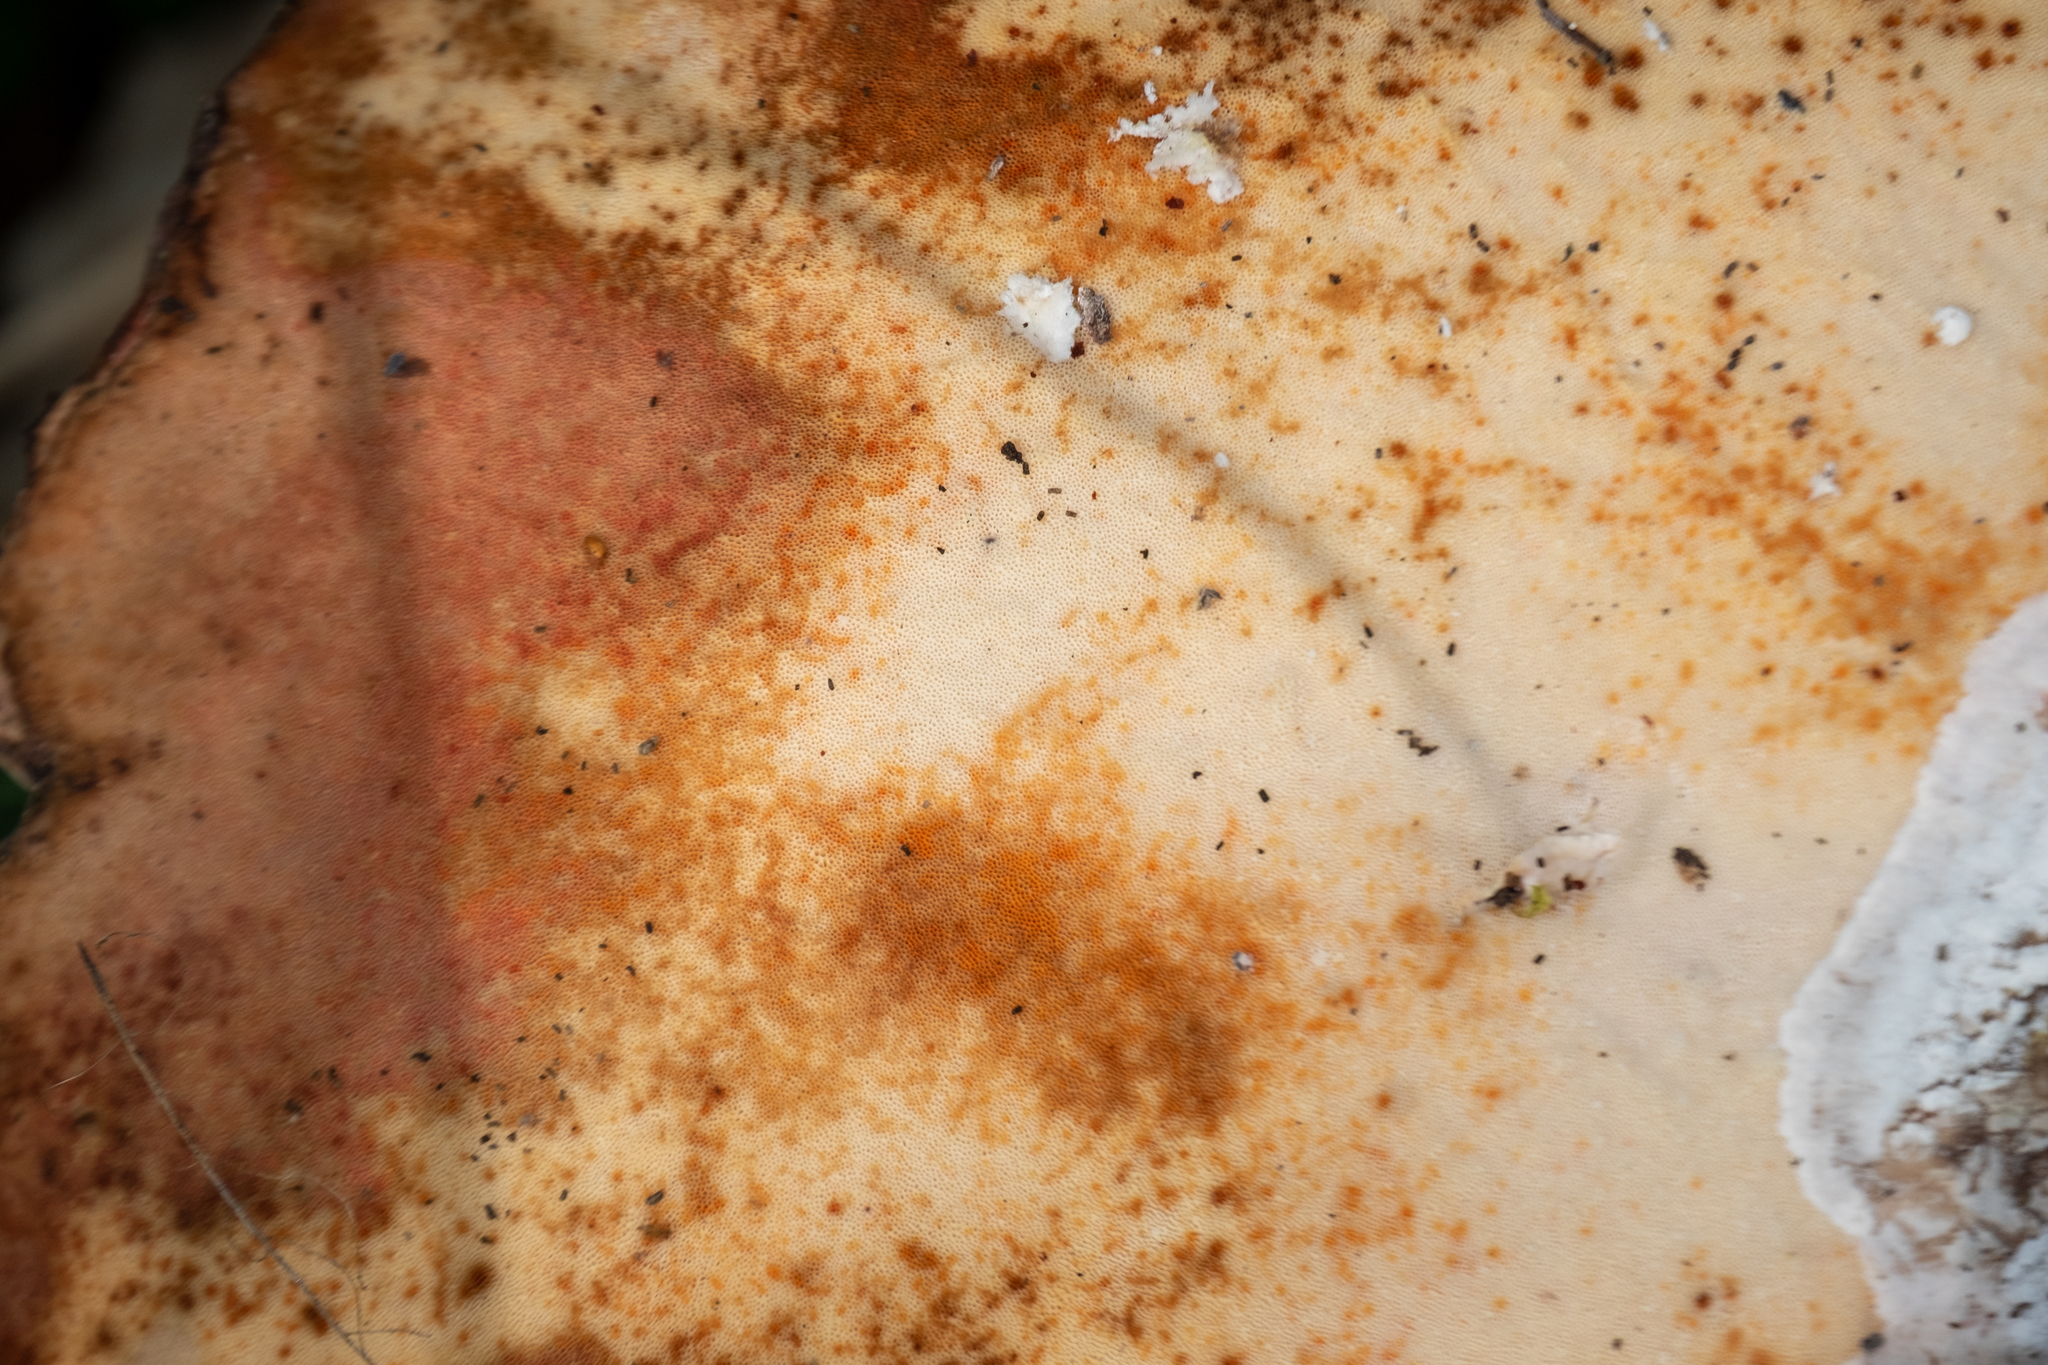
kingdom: Fungi
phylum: Basidiomycota
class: Agaricomycetes
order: Polyporales
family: Fomitopsidaceae
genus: Fomitopsis
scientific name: Fomitopsis betulina
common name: Birch polypore
